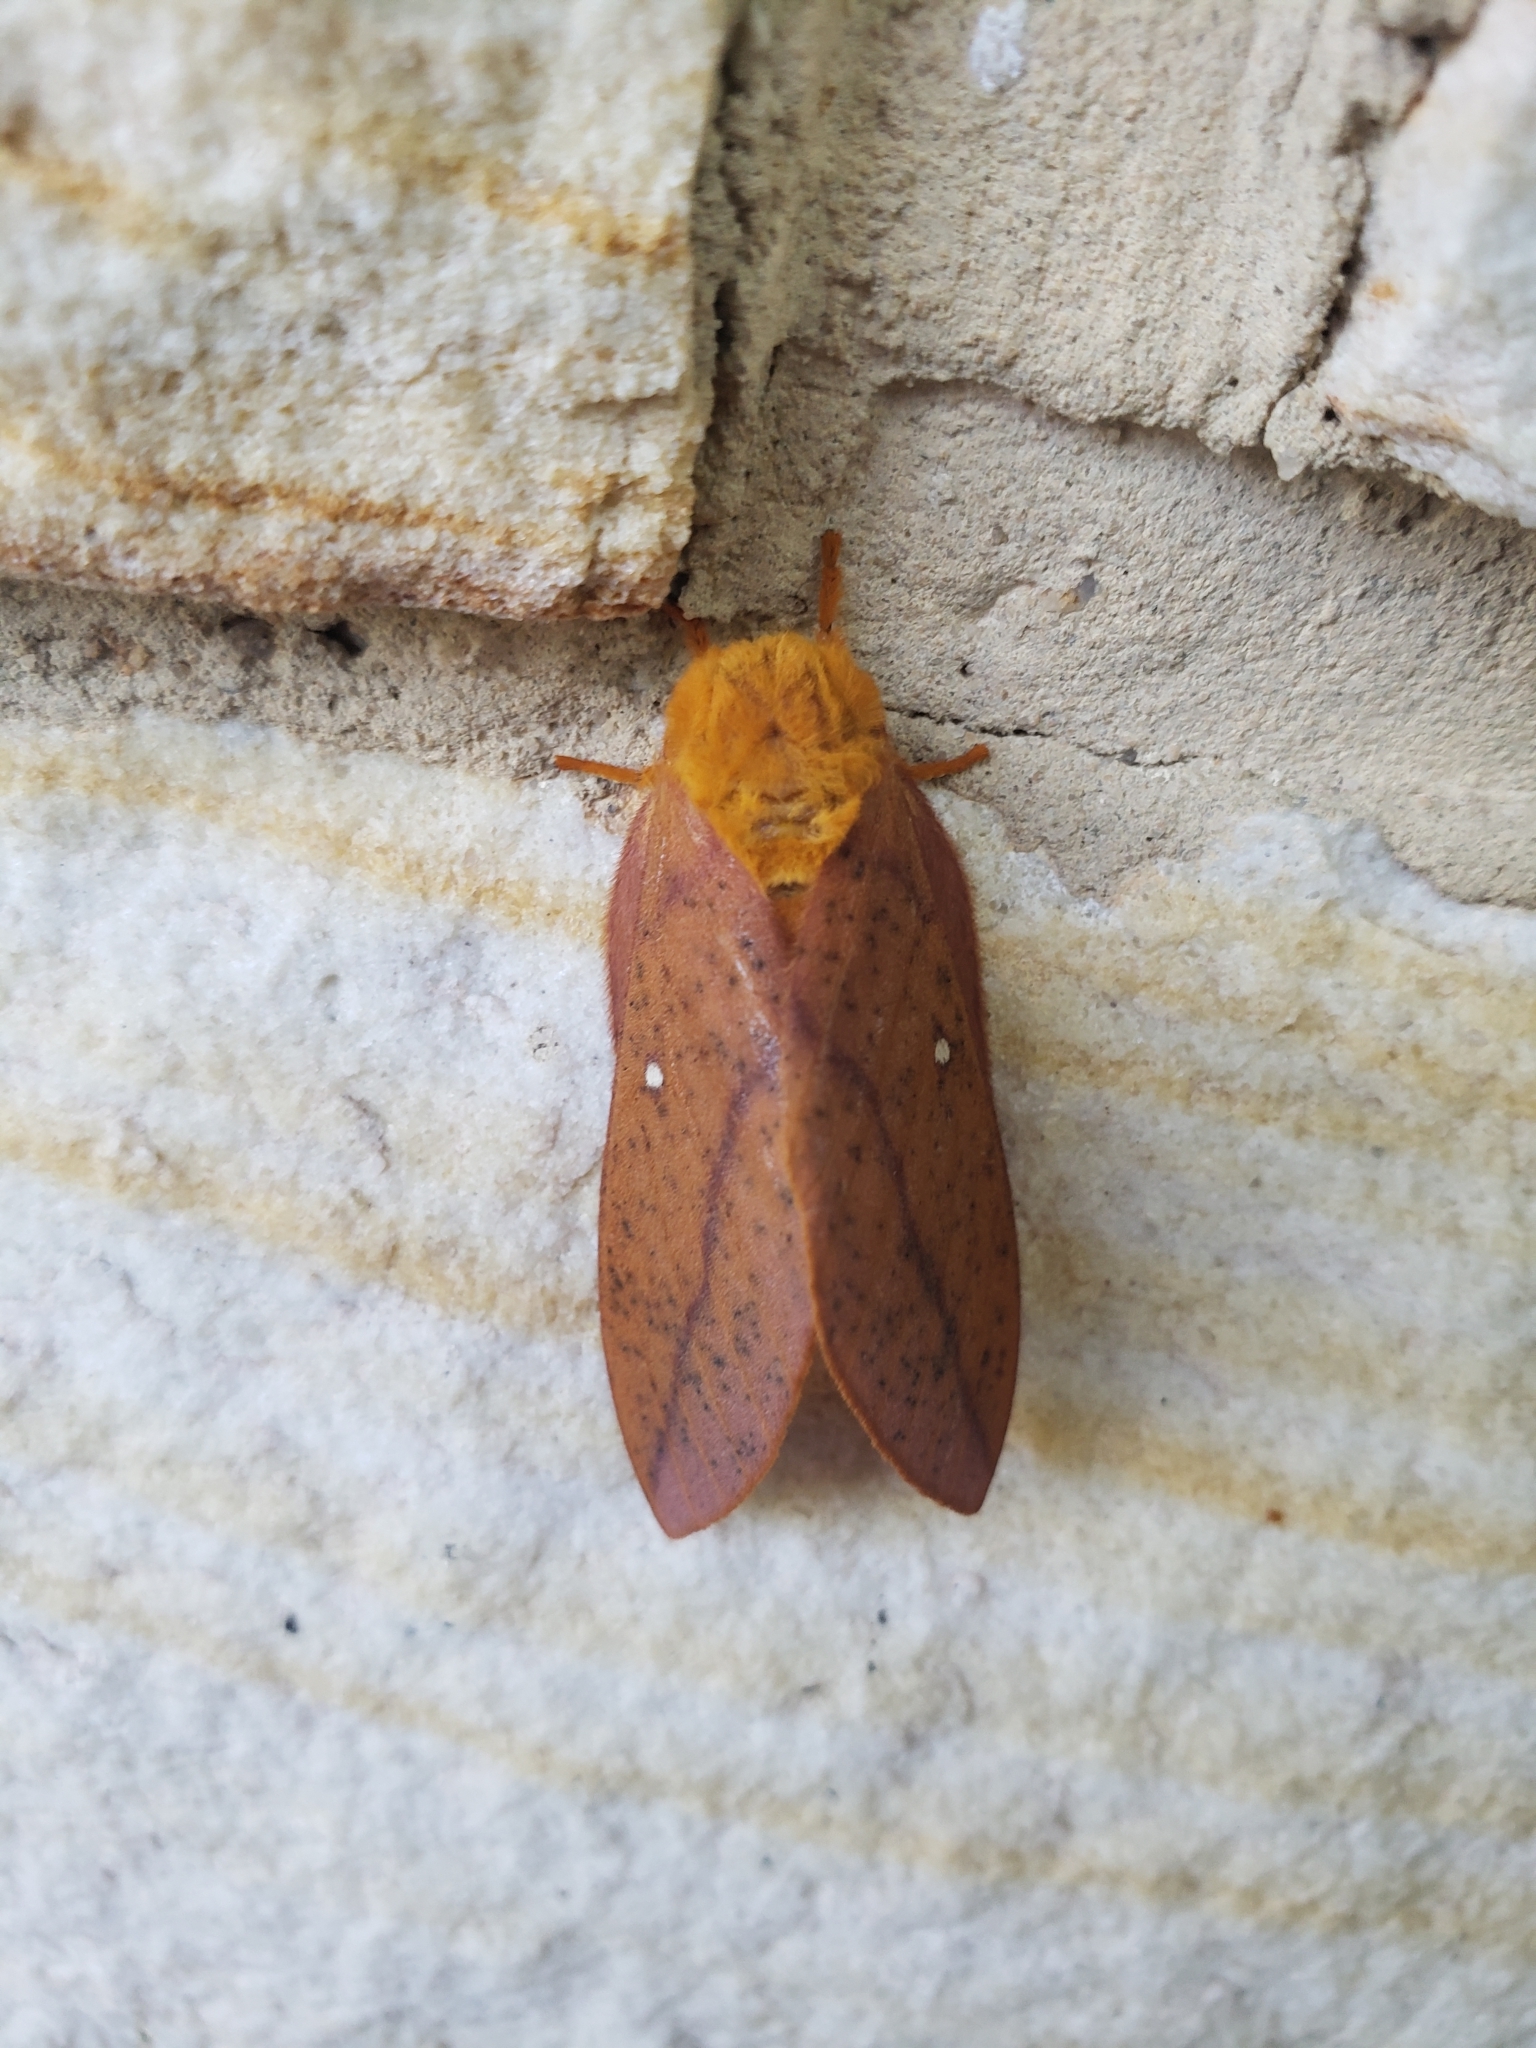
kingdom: Animalia
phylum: Arthropoda
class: Insecta
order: Lepidoptera
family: Saturniidae
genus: Anisota
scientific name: Anisota stigma
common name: Spiny oakworm moth
